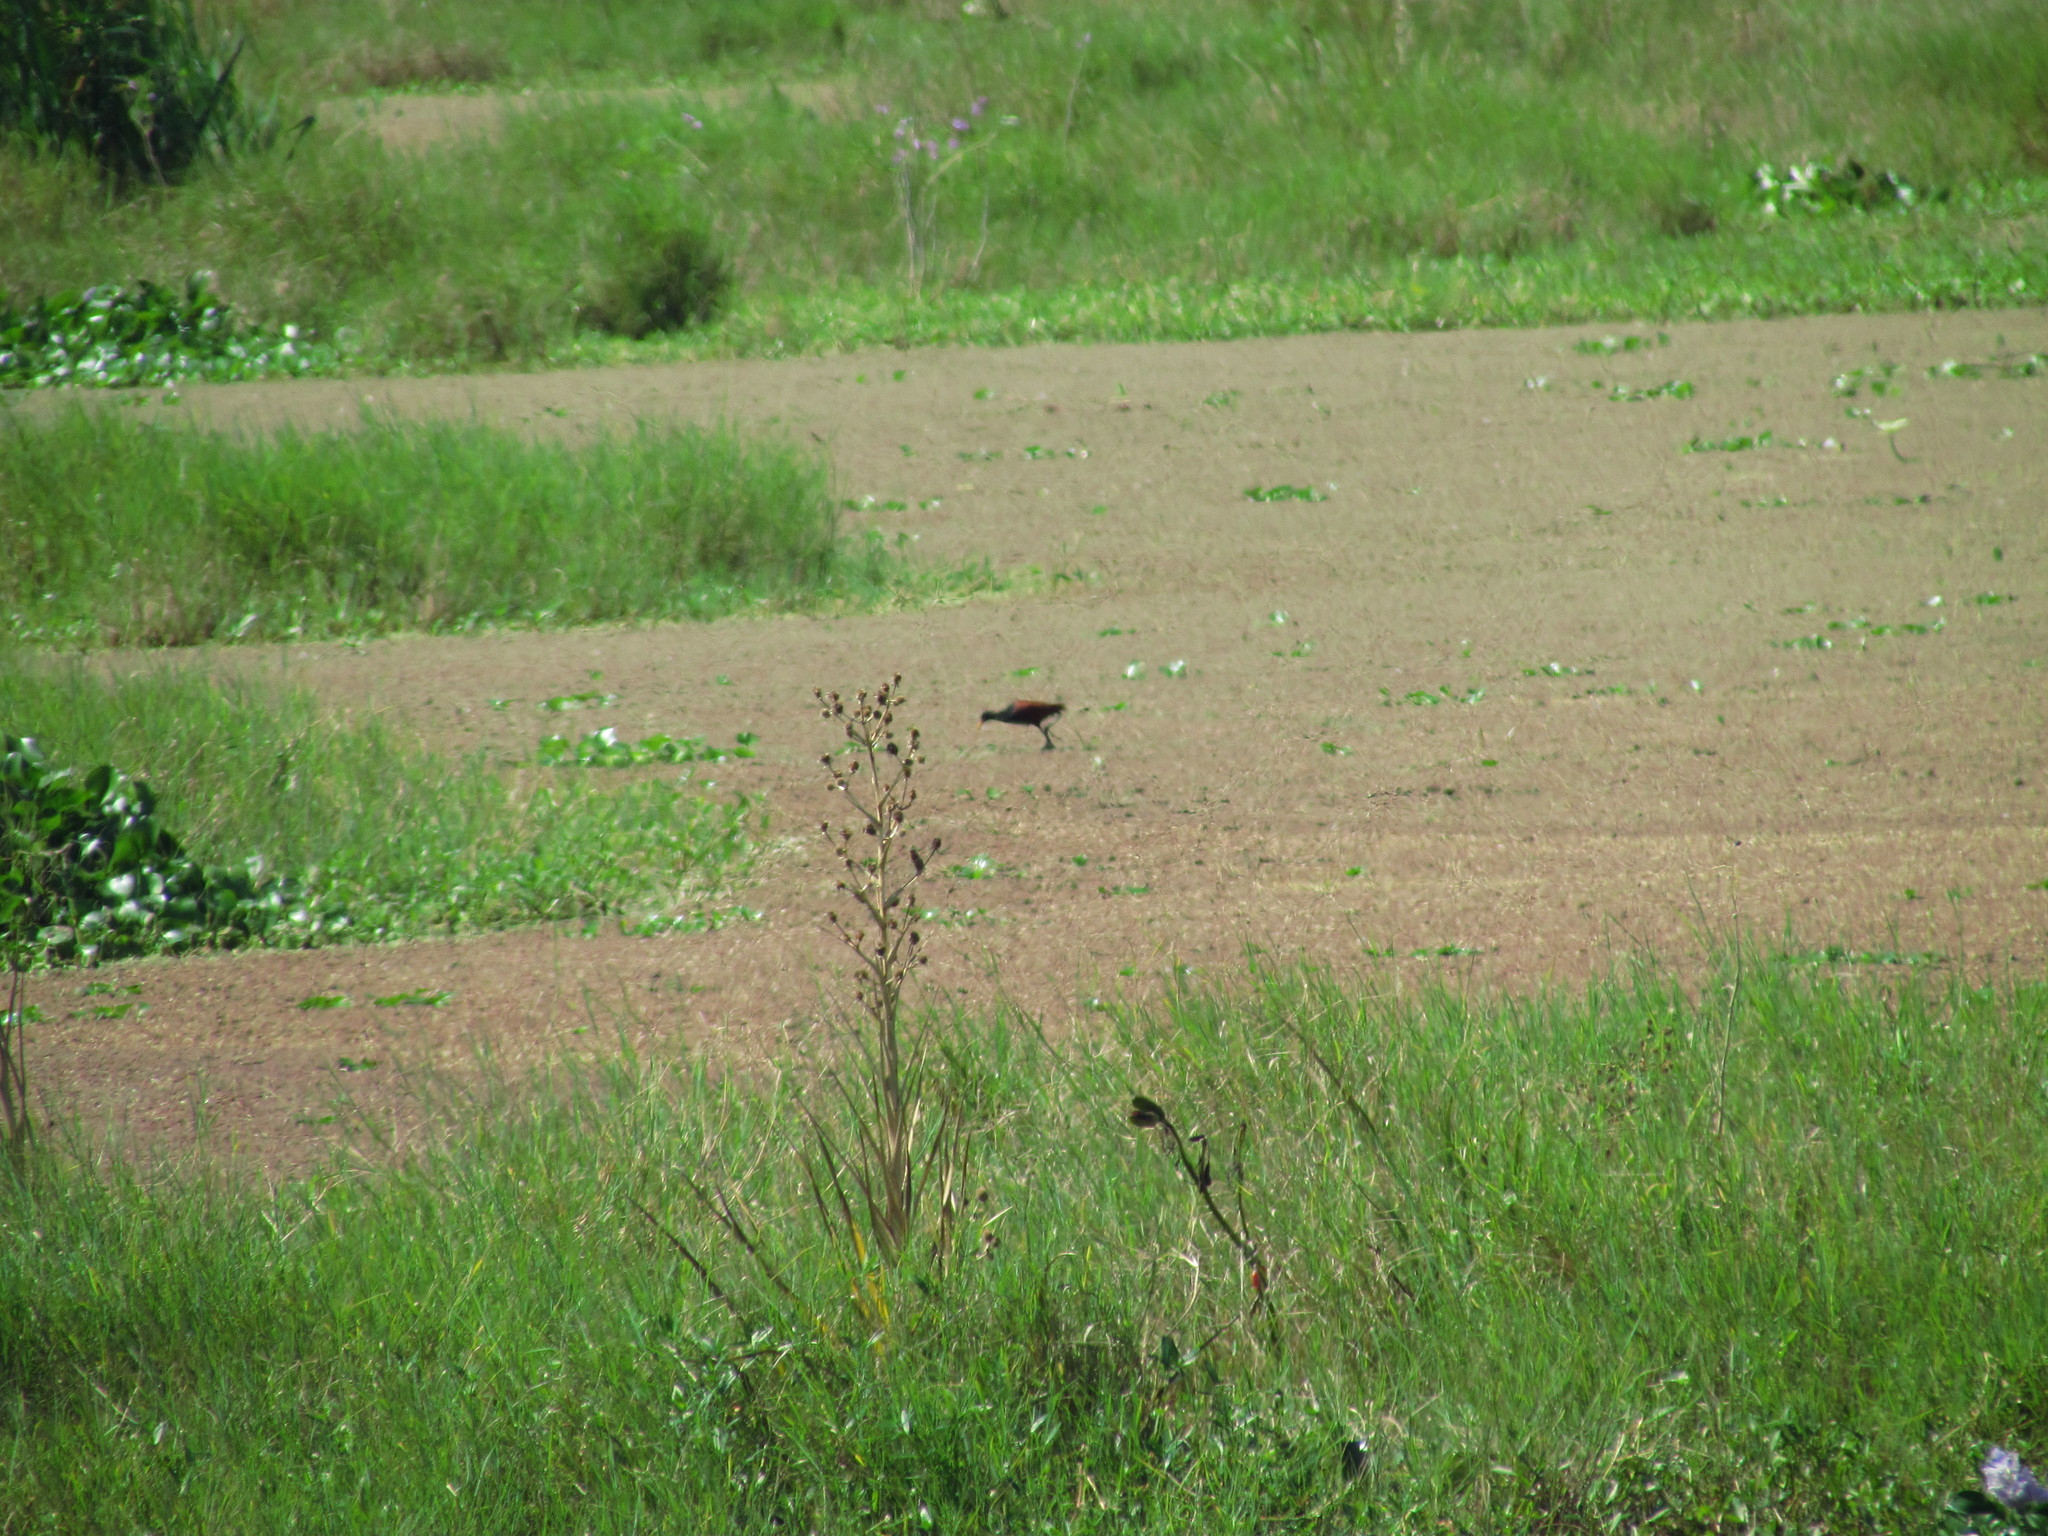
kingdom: Animalia
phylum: Chordata
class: Aves
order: Charadriiformes
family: Jacanidae
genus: Jacana
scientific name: Jacana jacana
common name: Wattled jacana
